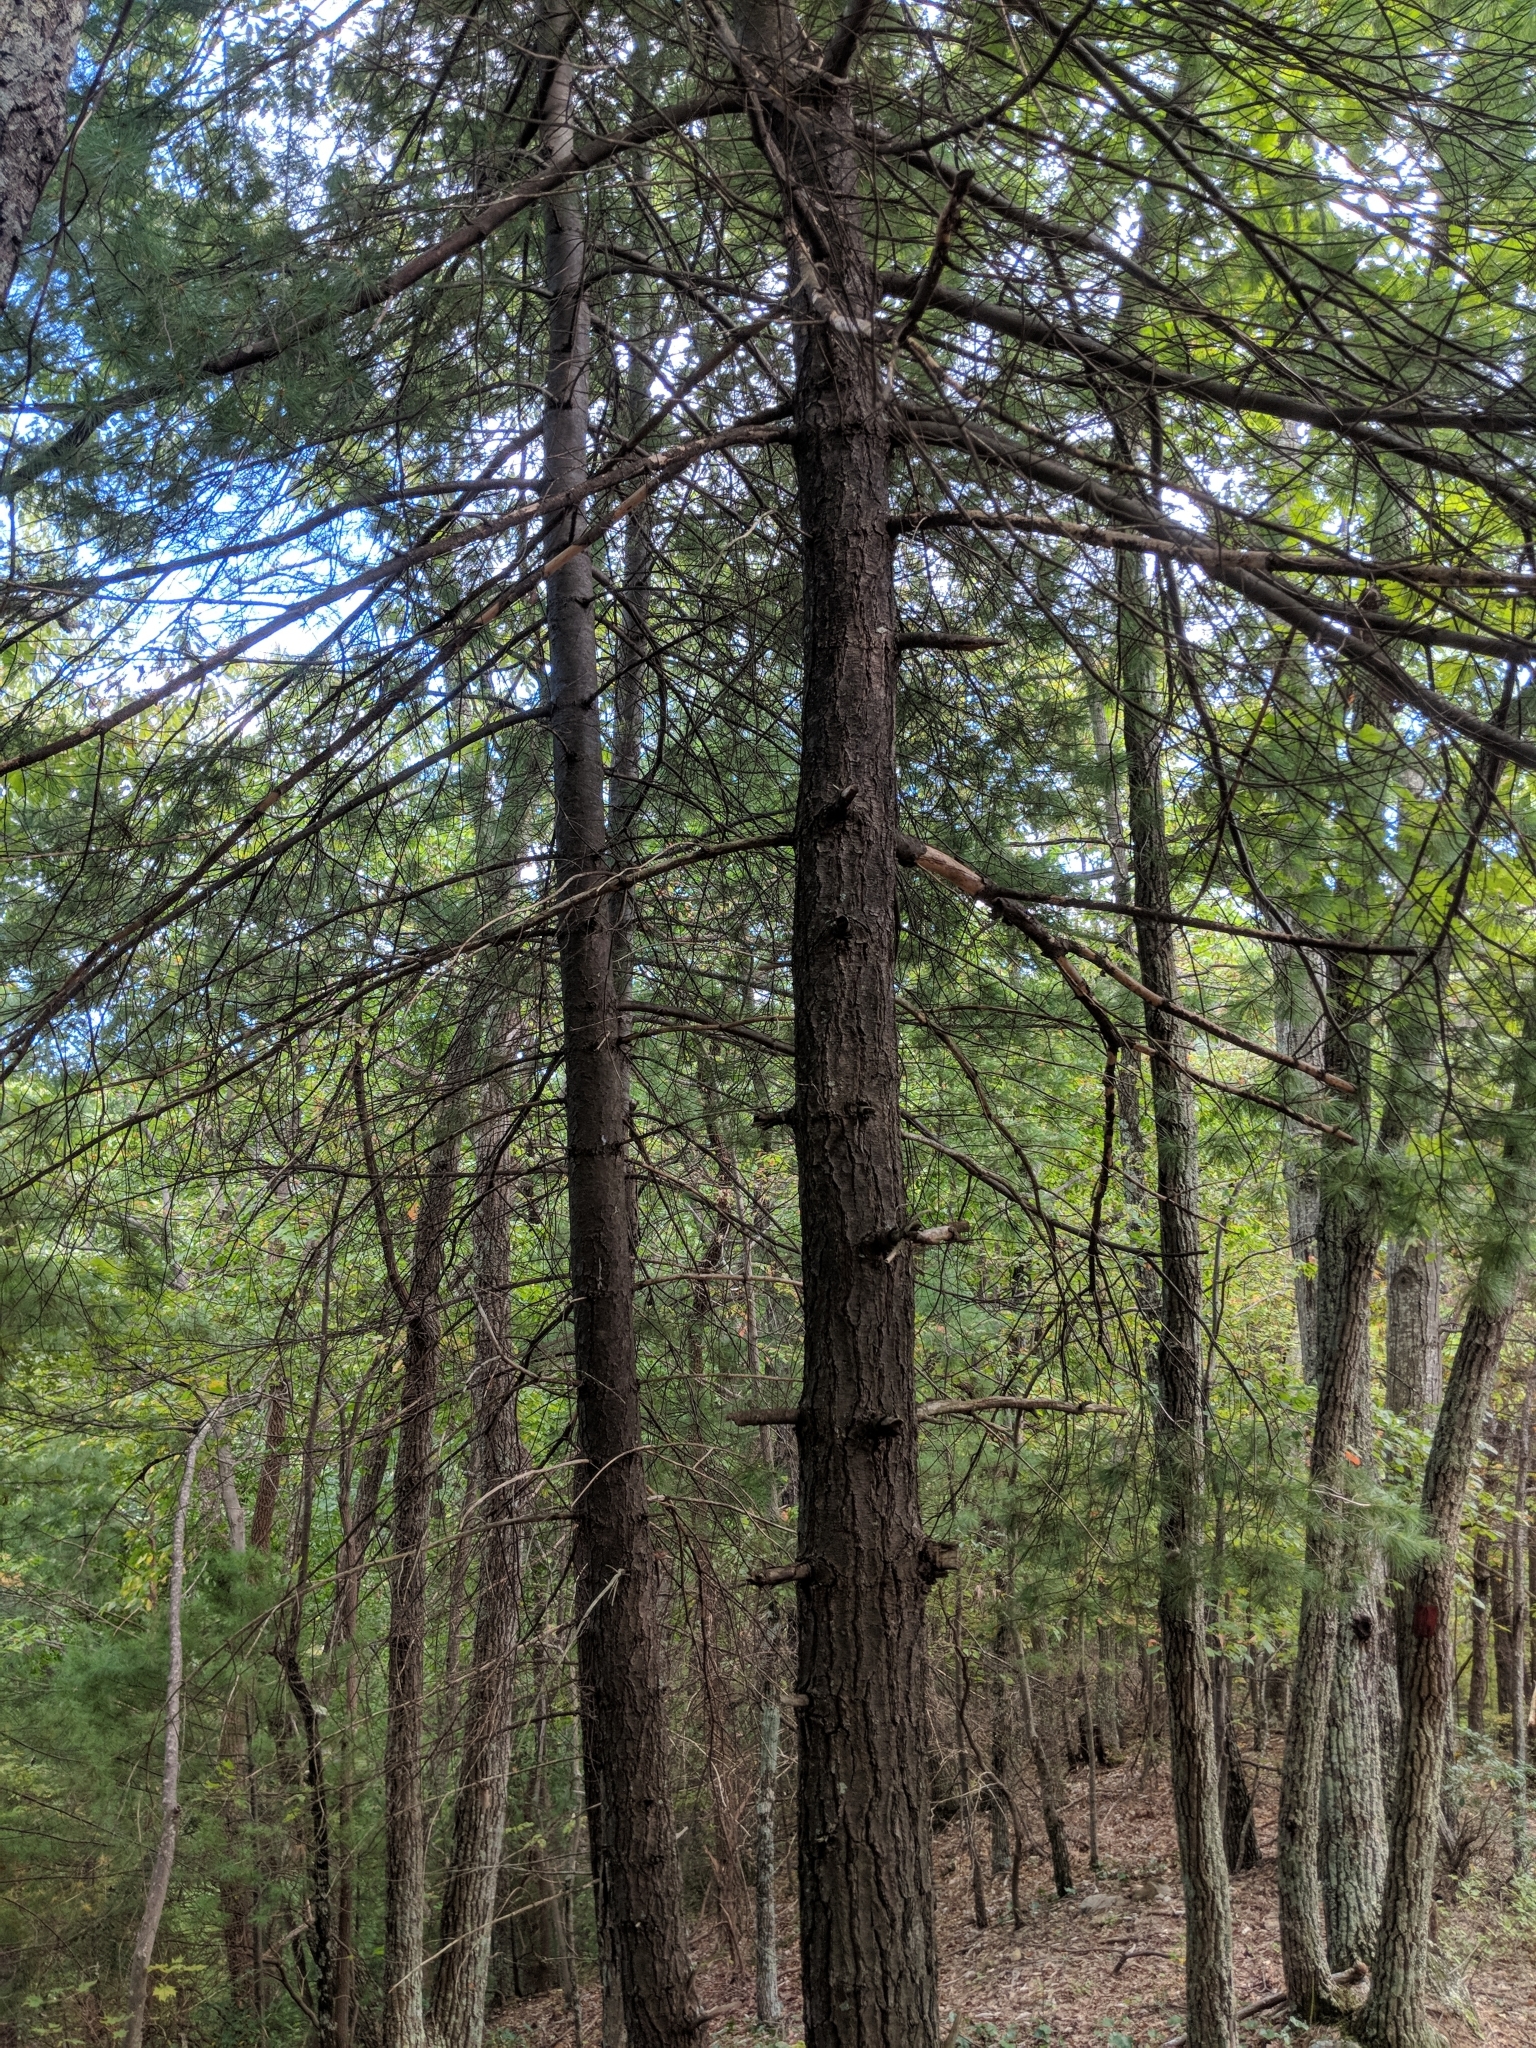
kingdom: Plantae
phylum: Tracheophyta
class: Pinopsida
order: Pinales
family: Pinaceae
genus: Pinus
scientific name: Pinus strobus
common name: Weymouth pine
